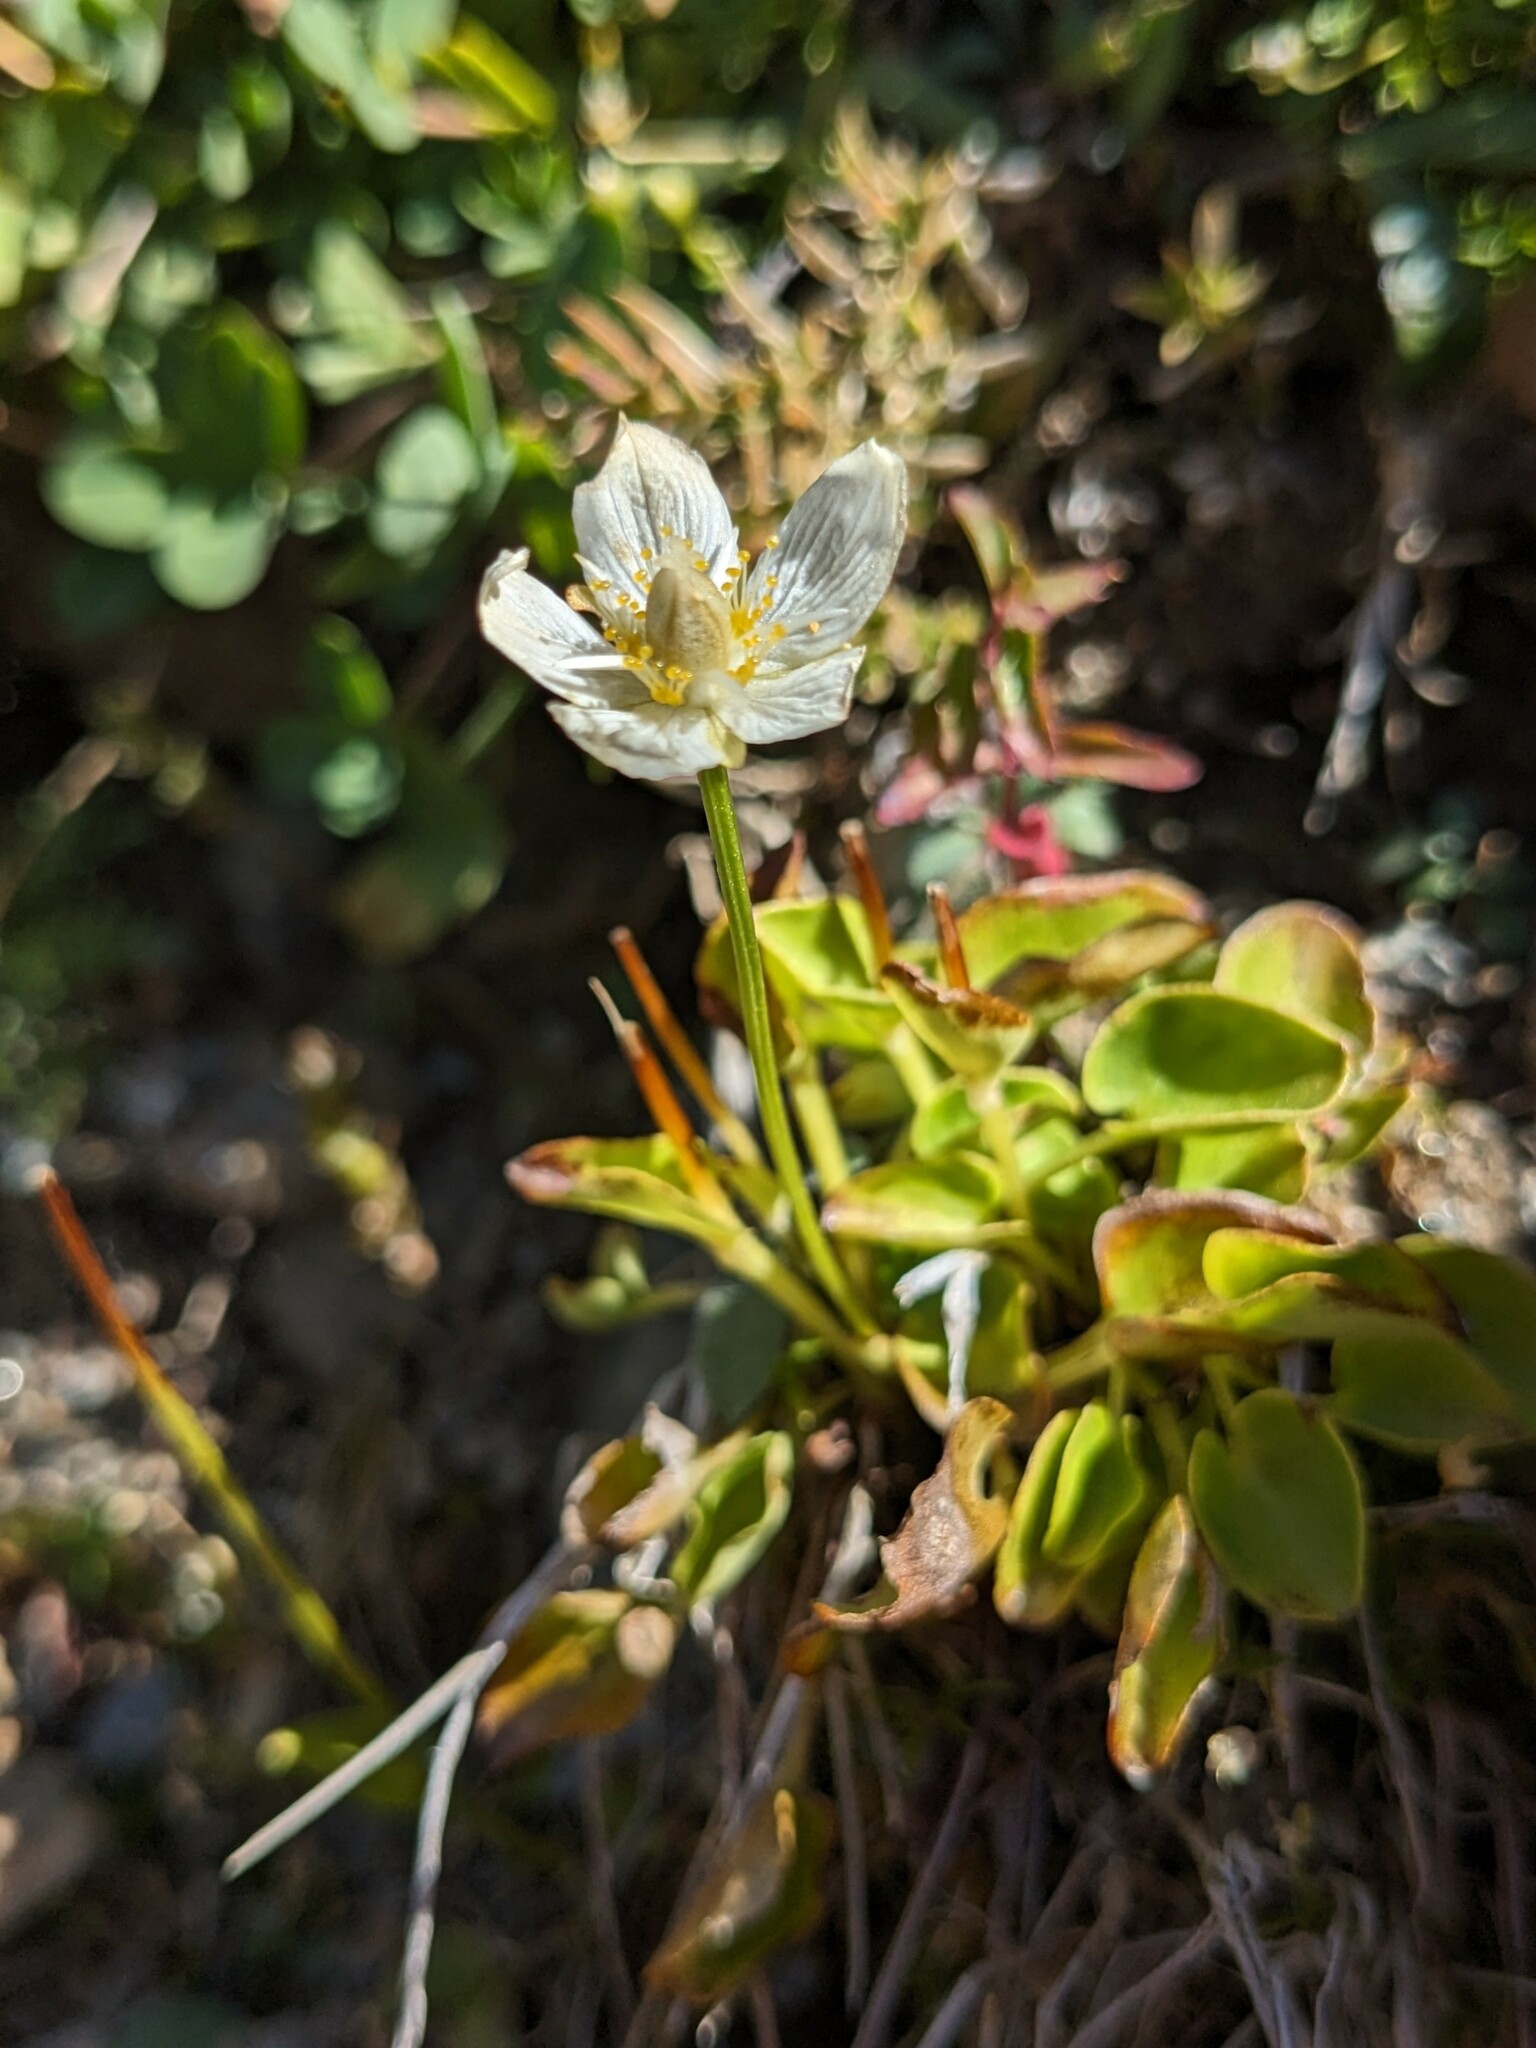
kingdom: Plantae
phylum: Tracheophyta
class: Magnoliopsida
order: Celastrales
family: Parnassiaceae
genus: Parnassia
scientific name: Parnassia palustris
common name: Grass-of-parnassus
